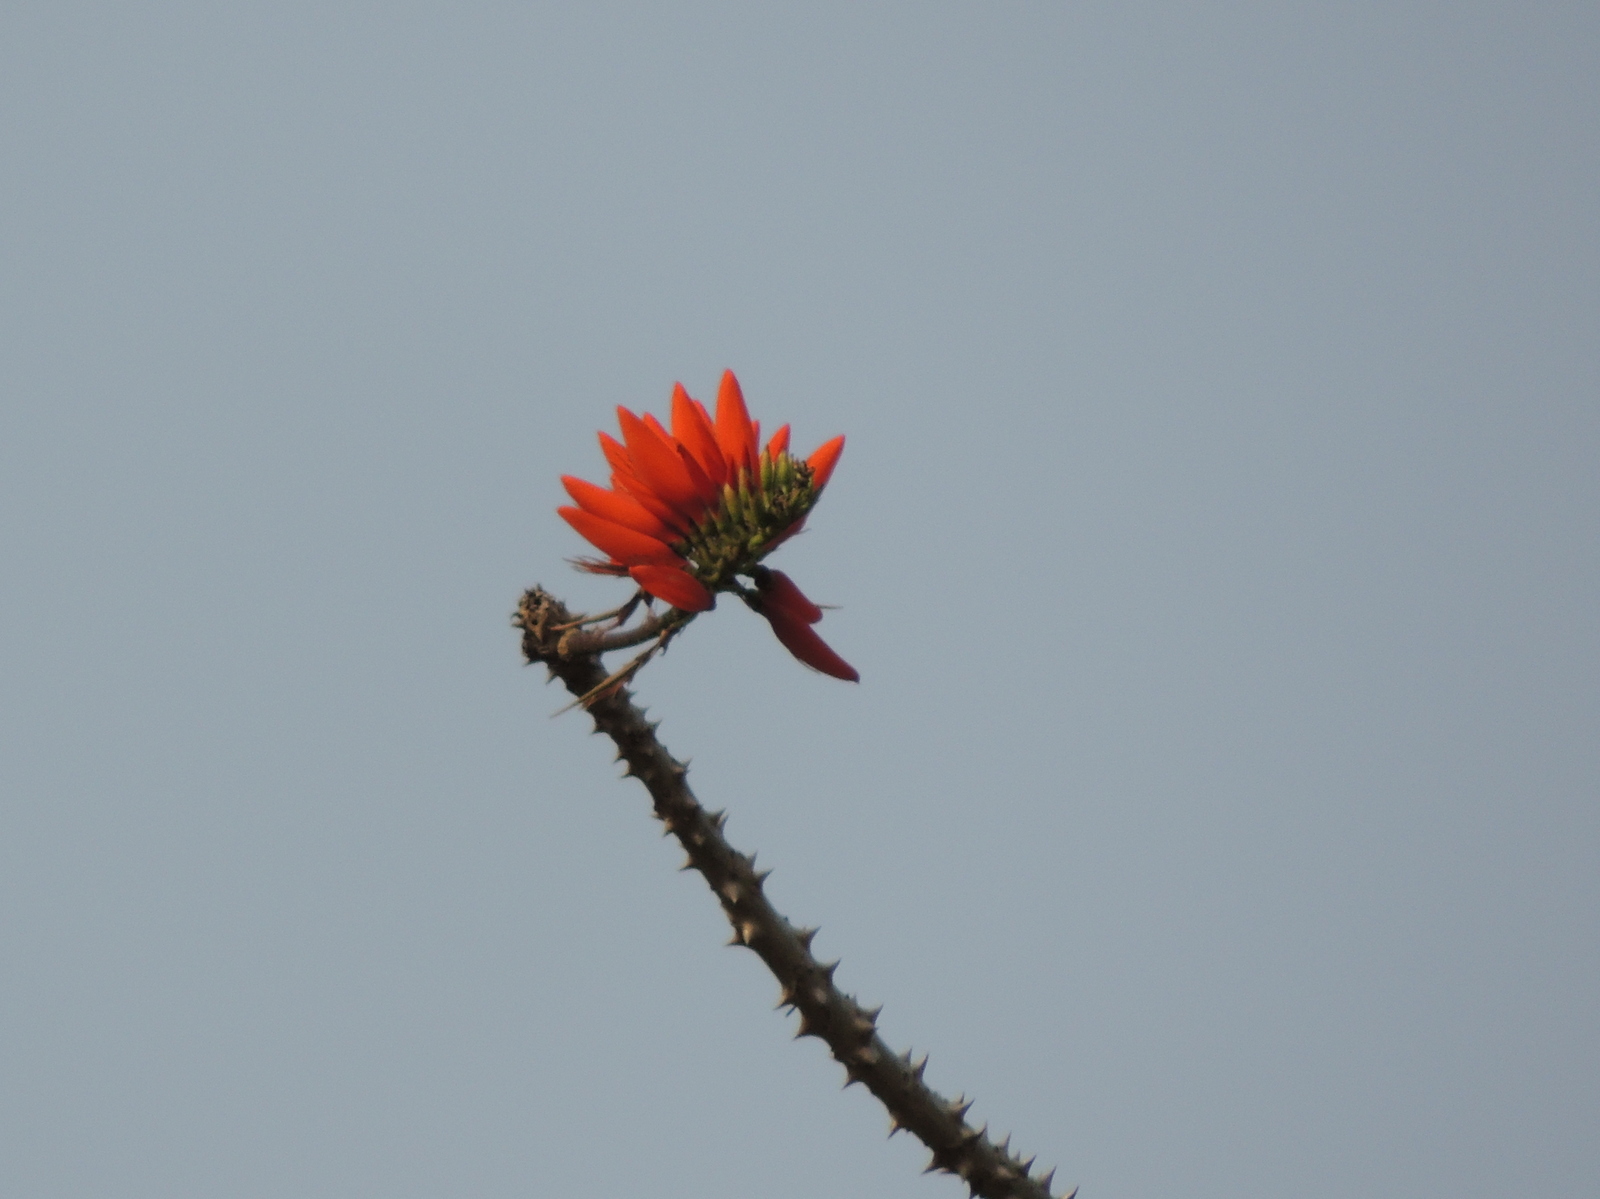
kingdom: Plantae
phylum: Tracheophyta
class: Magnoliopsida
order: Fabales
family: Fabaceae
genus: Erythrina
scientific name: Erythrina variegata
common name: Indian coral tree
